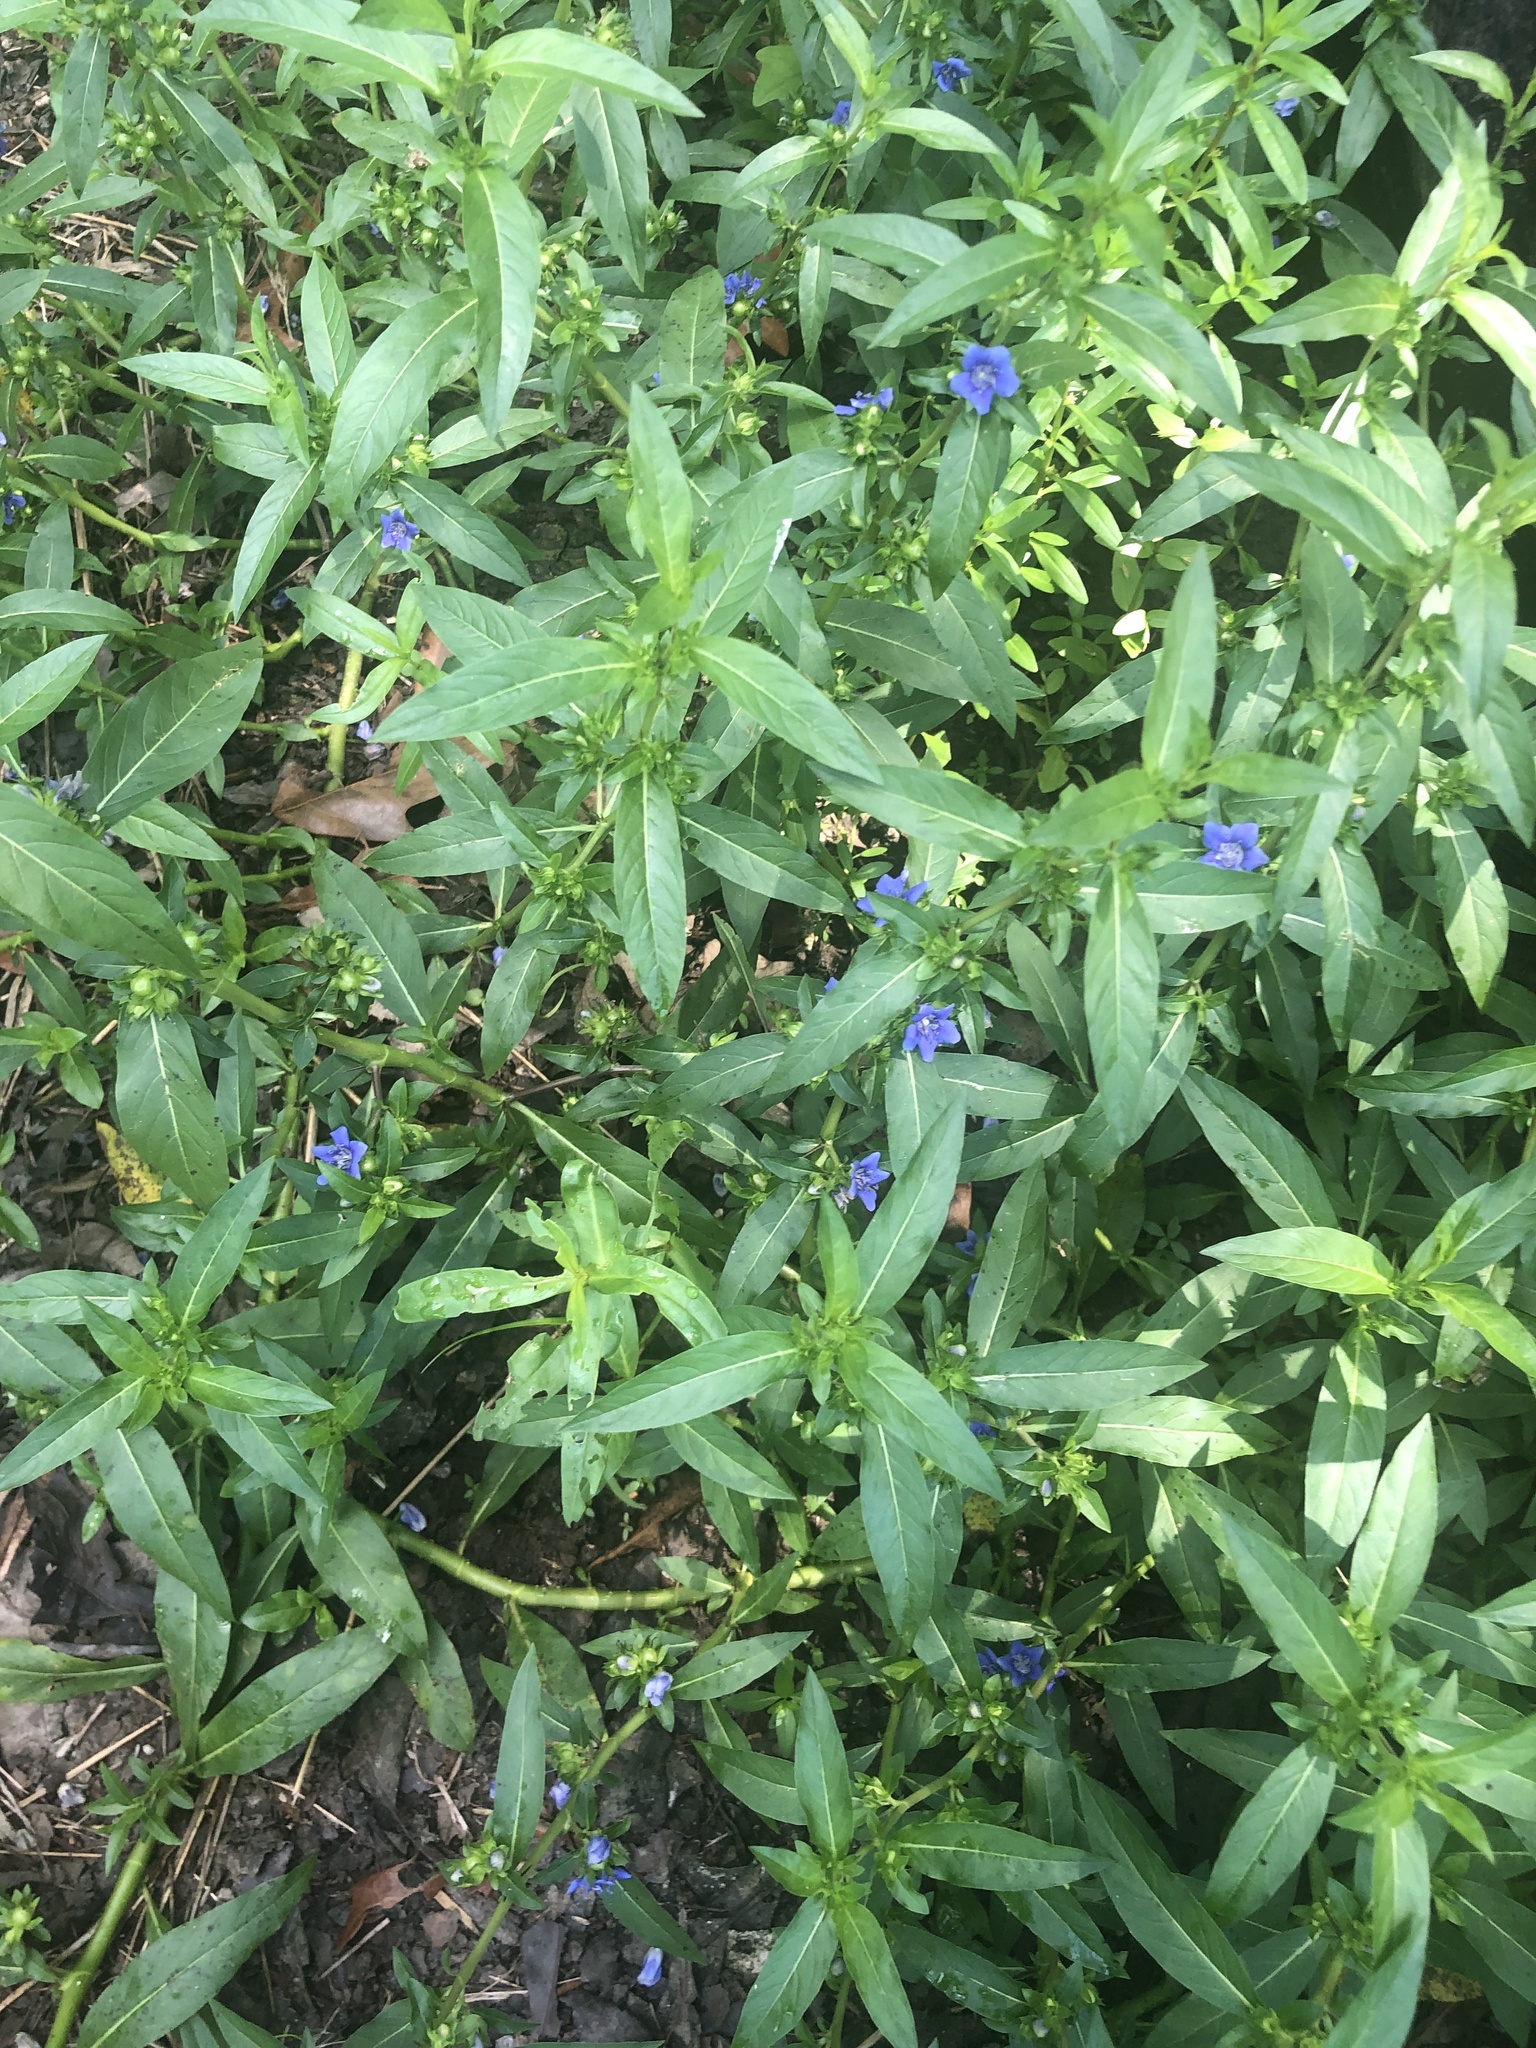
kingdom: Plantae
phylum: Tracheophyta
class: Magnoliopsida
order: Solanales
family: Hydroleaceae
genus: Hydrolea
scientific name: Hydrolea ovata
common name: Ovate false fiddleleaf
